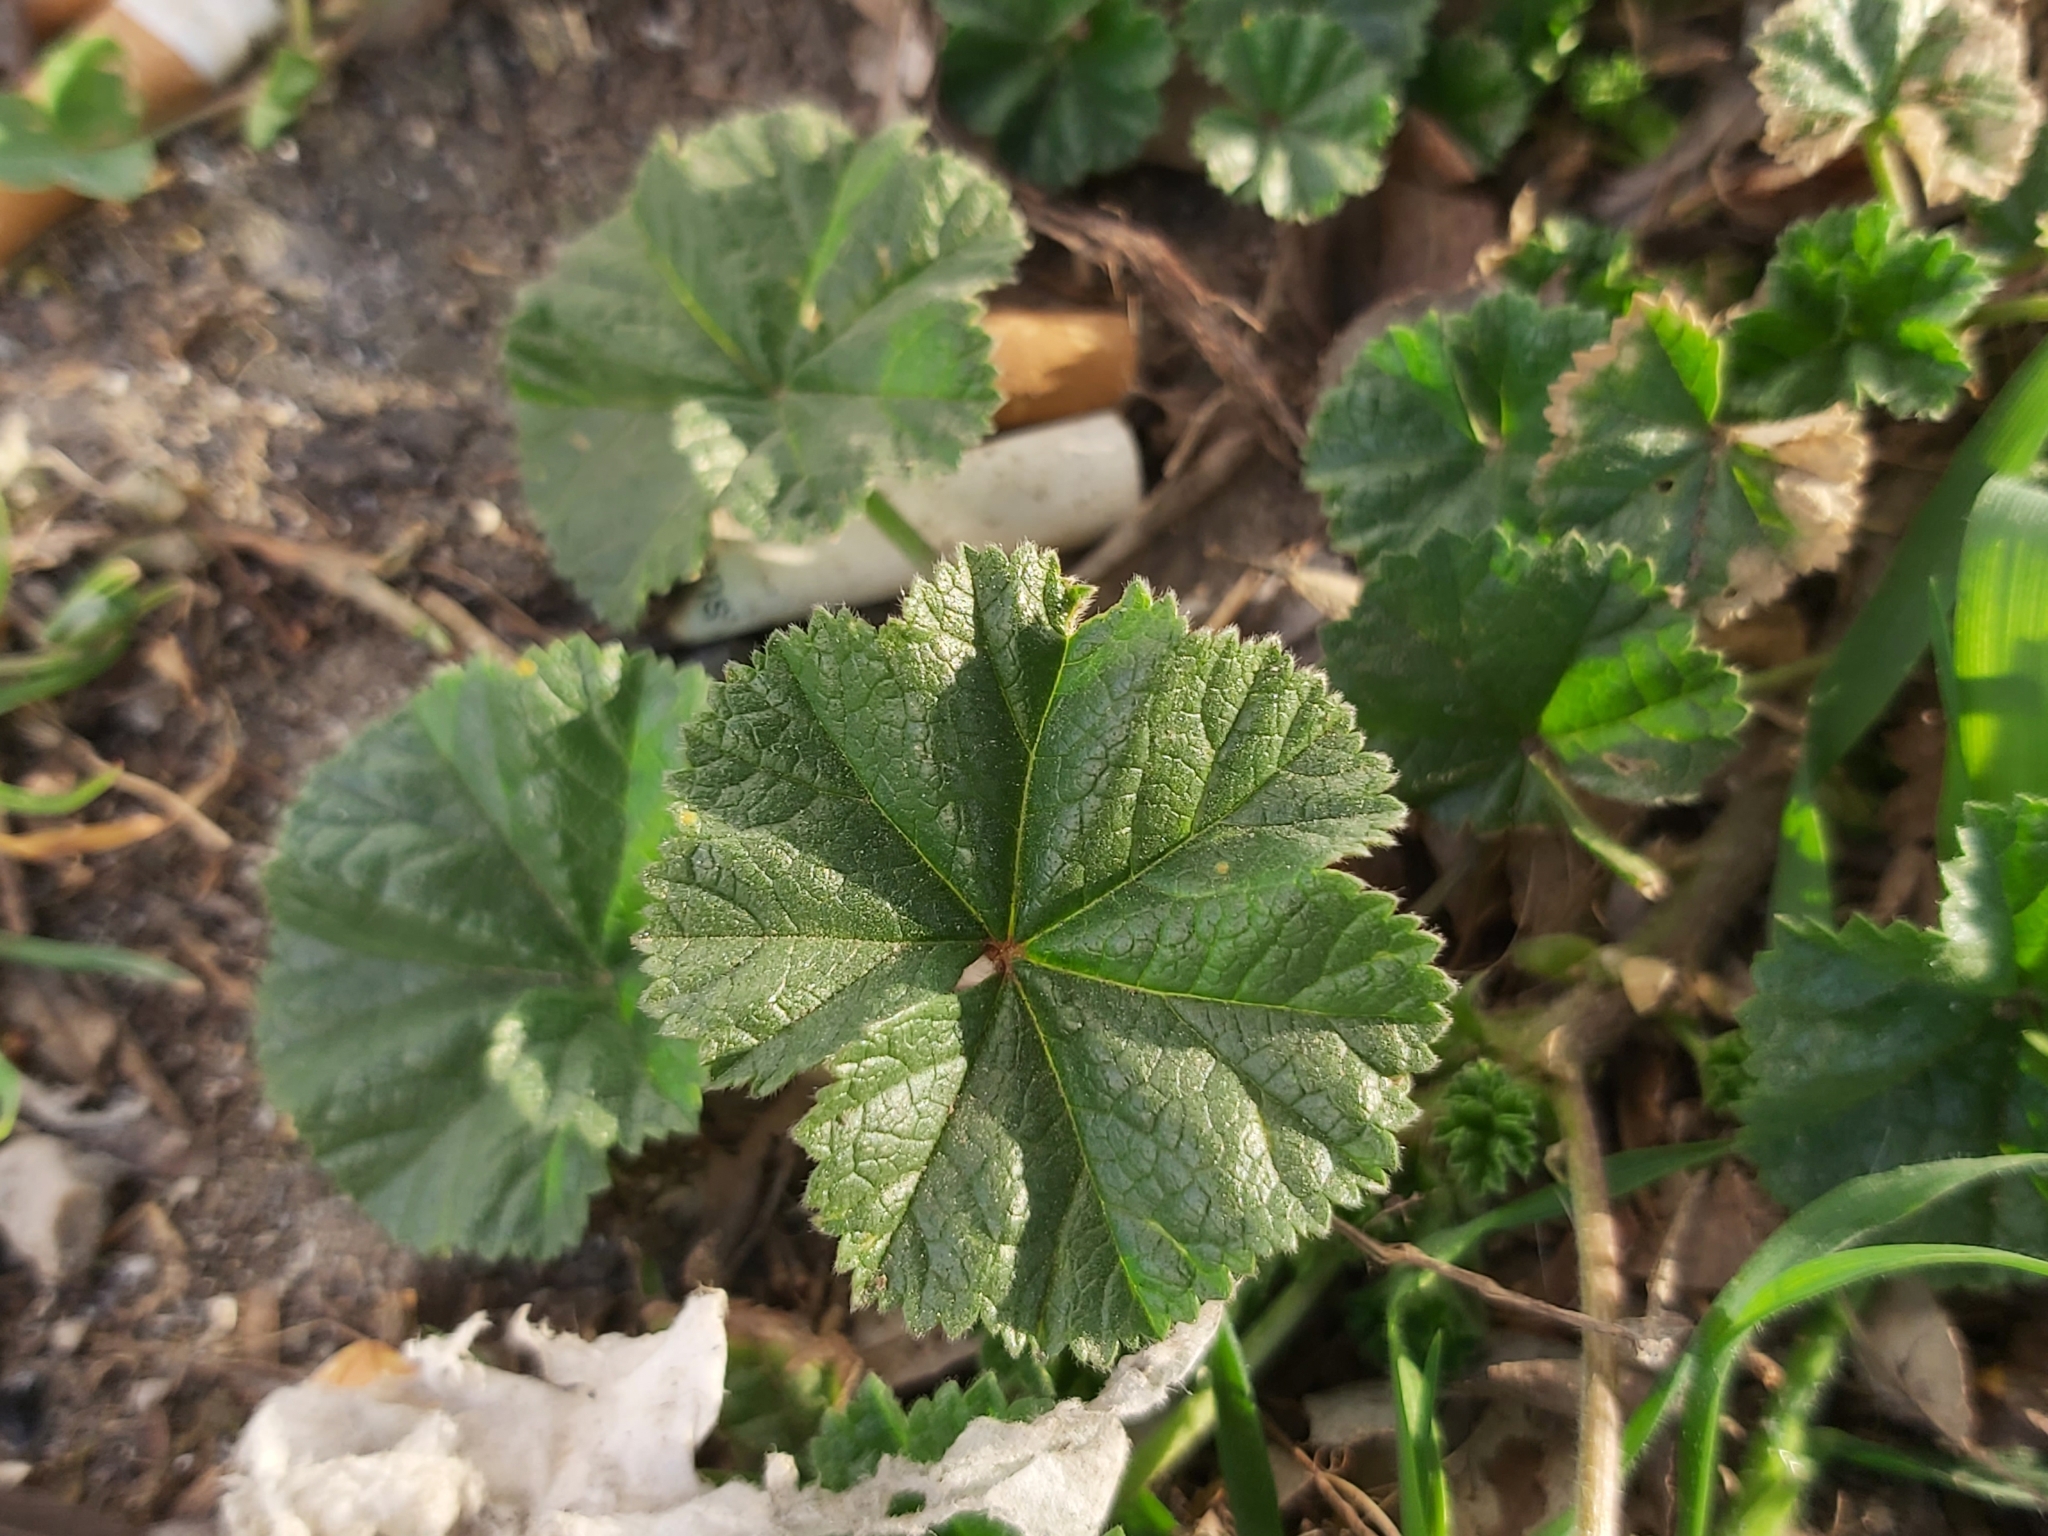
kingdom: Plantae
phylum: Tracheophyta
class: Magnoliopsida
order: Malvales
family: Malvaceae
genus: Malva
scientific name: Malva neglecta
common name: Common mallow
